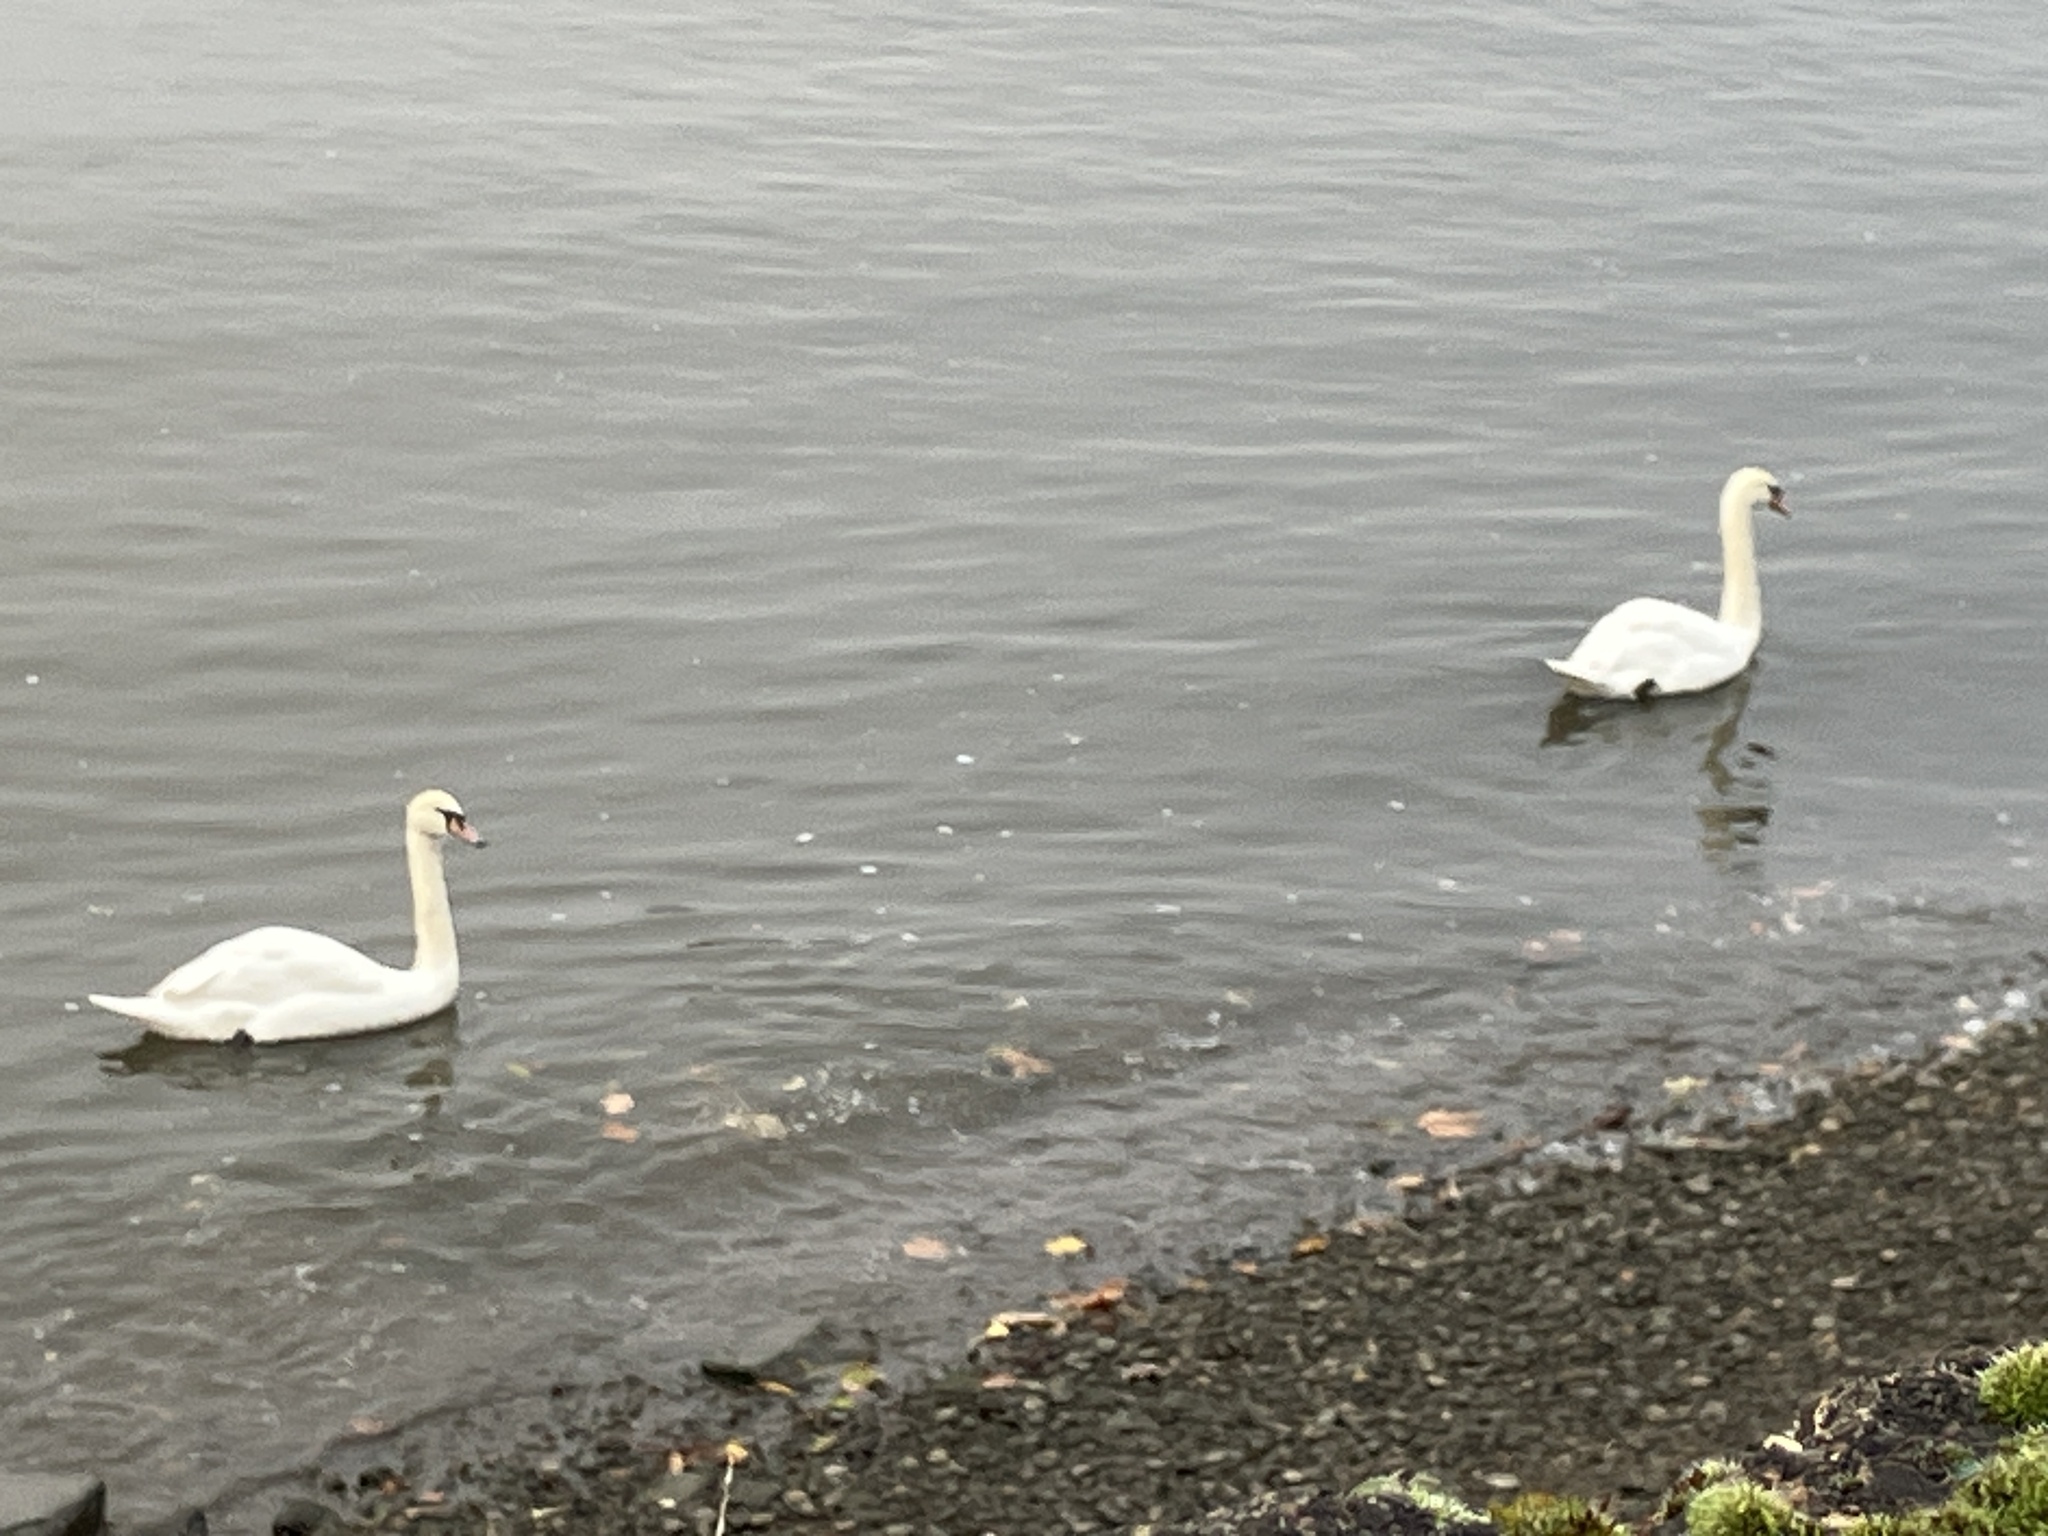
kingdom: Animalia
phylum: Chordata
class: Aves
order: Anseriformes
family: Anatidae
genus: Cygnus
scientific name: Cygnus olor
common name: Mute swan
